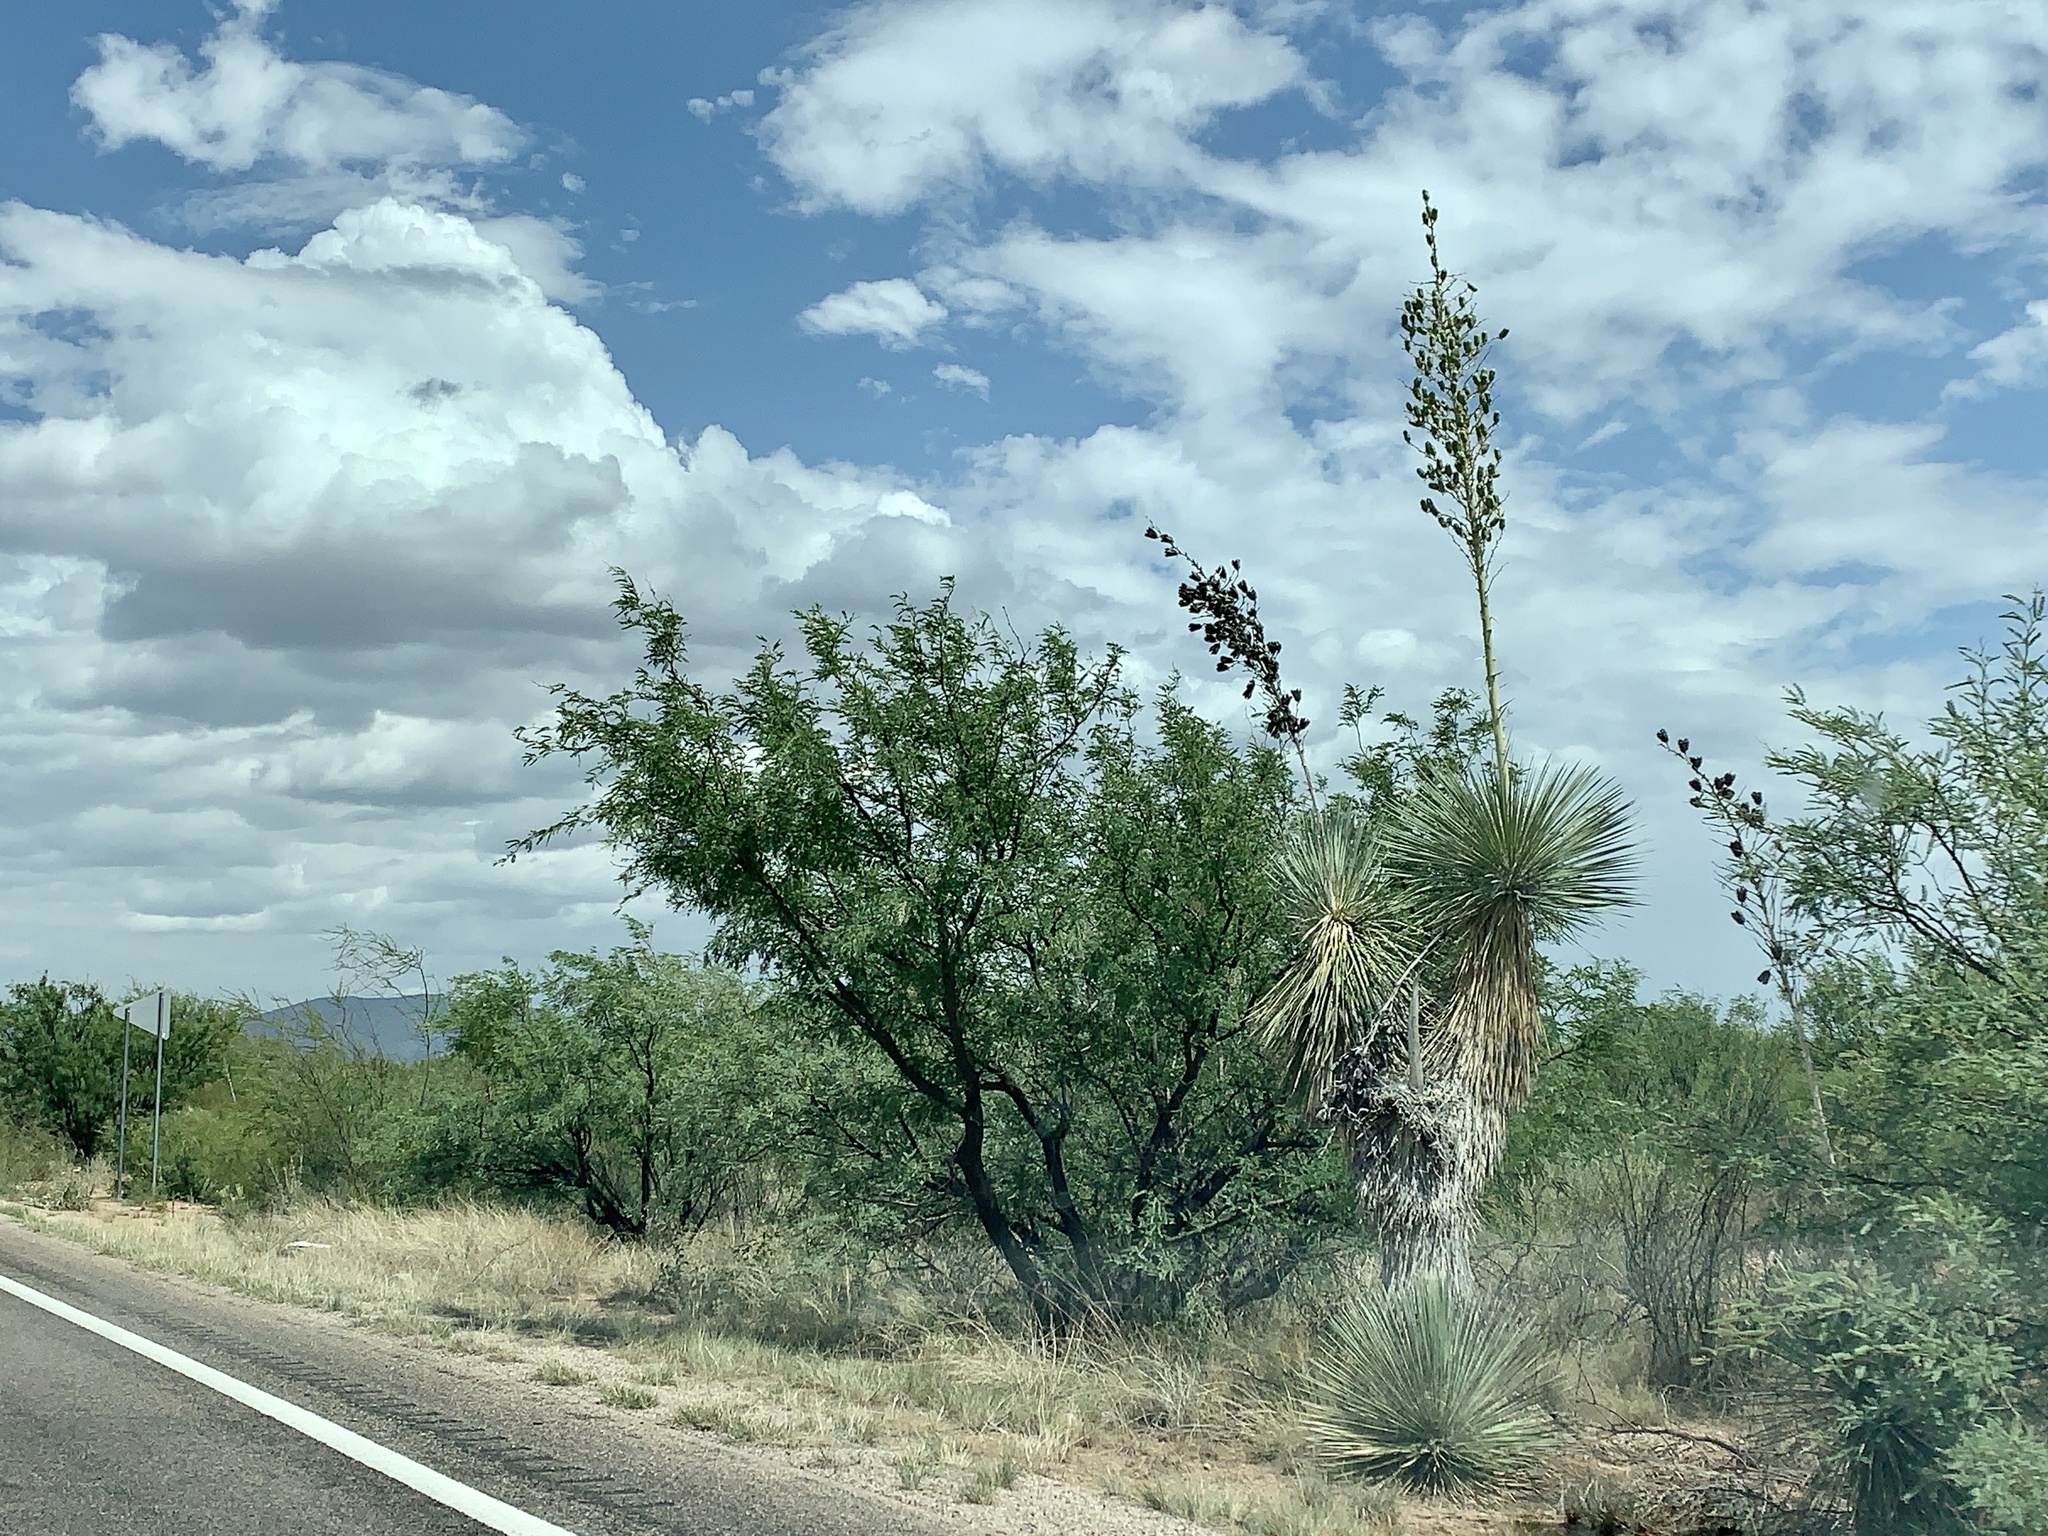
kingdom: Plantae
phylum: Tracheophyta
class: Liliopsida
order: Asparagales
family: Asparagaceae
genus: Yucca
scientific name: Yucca elata
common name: Palmella
